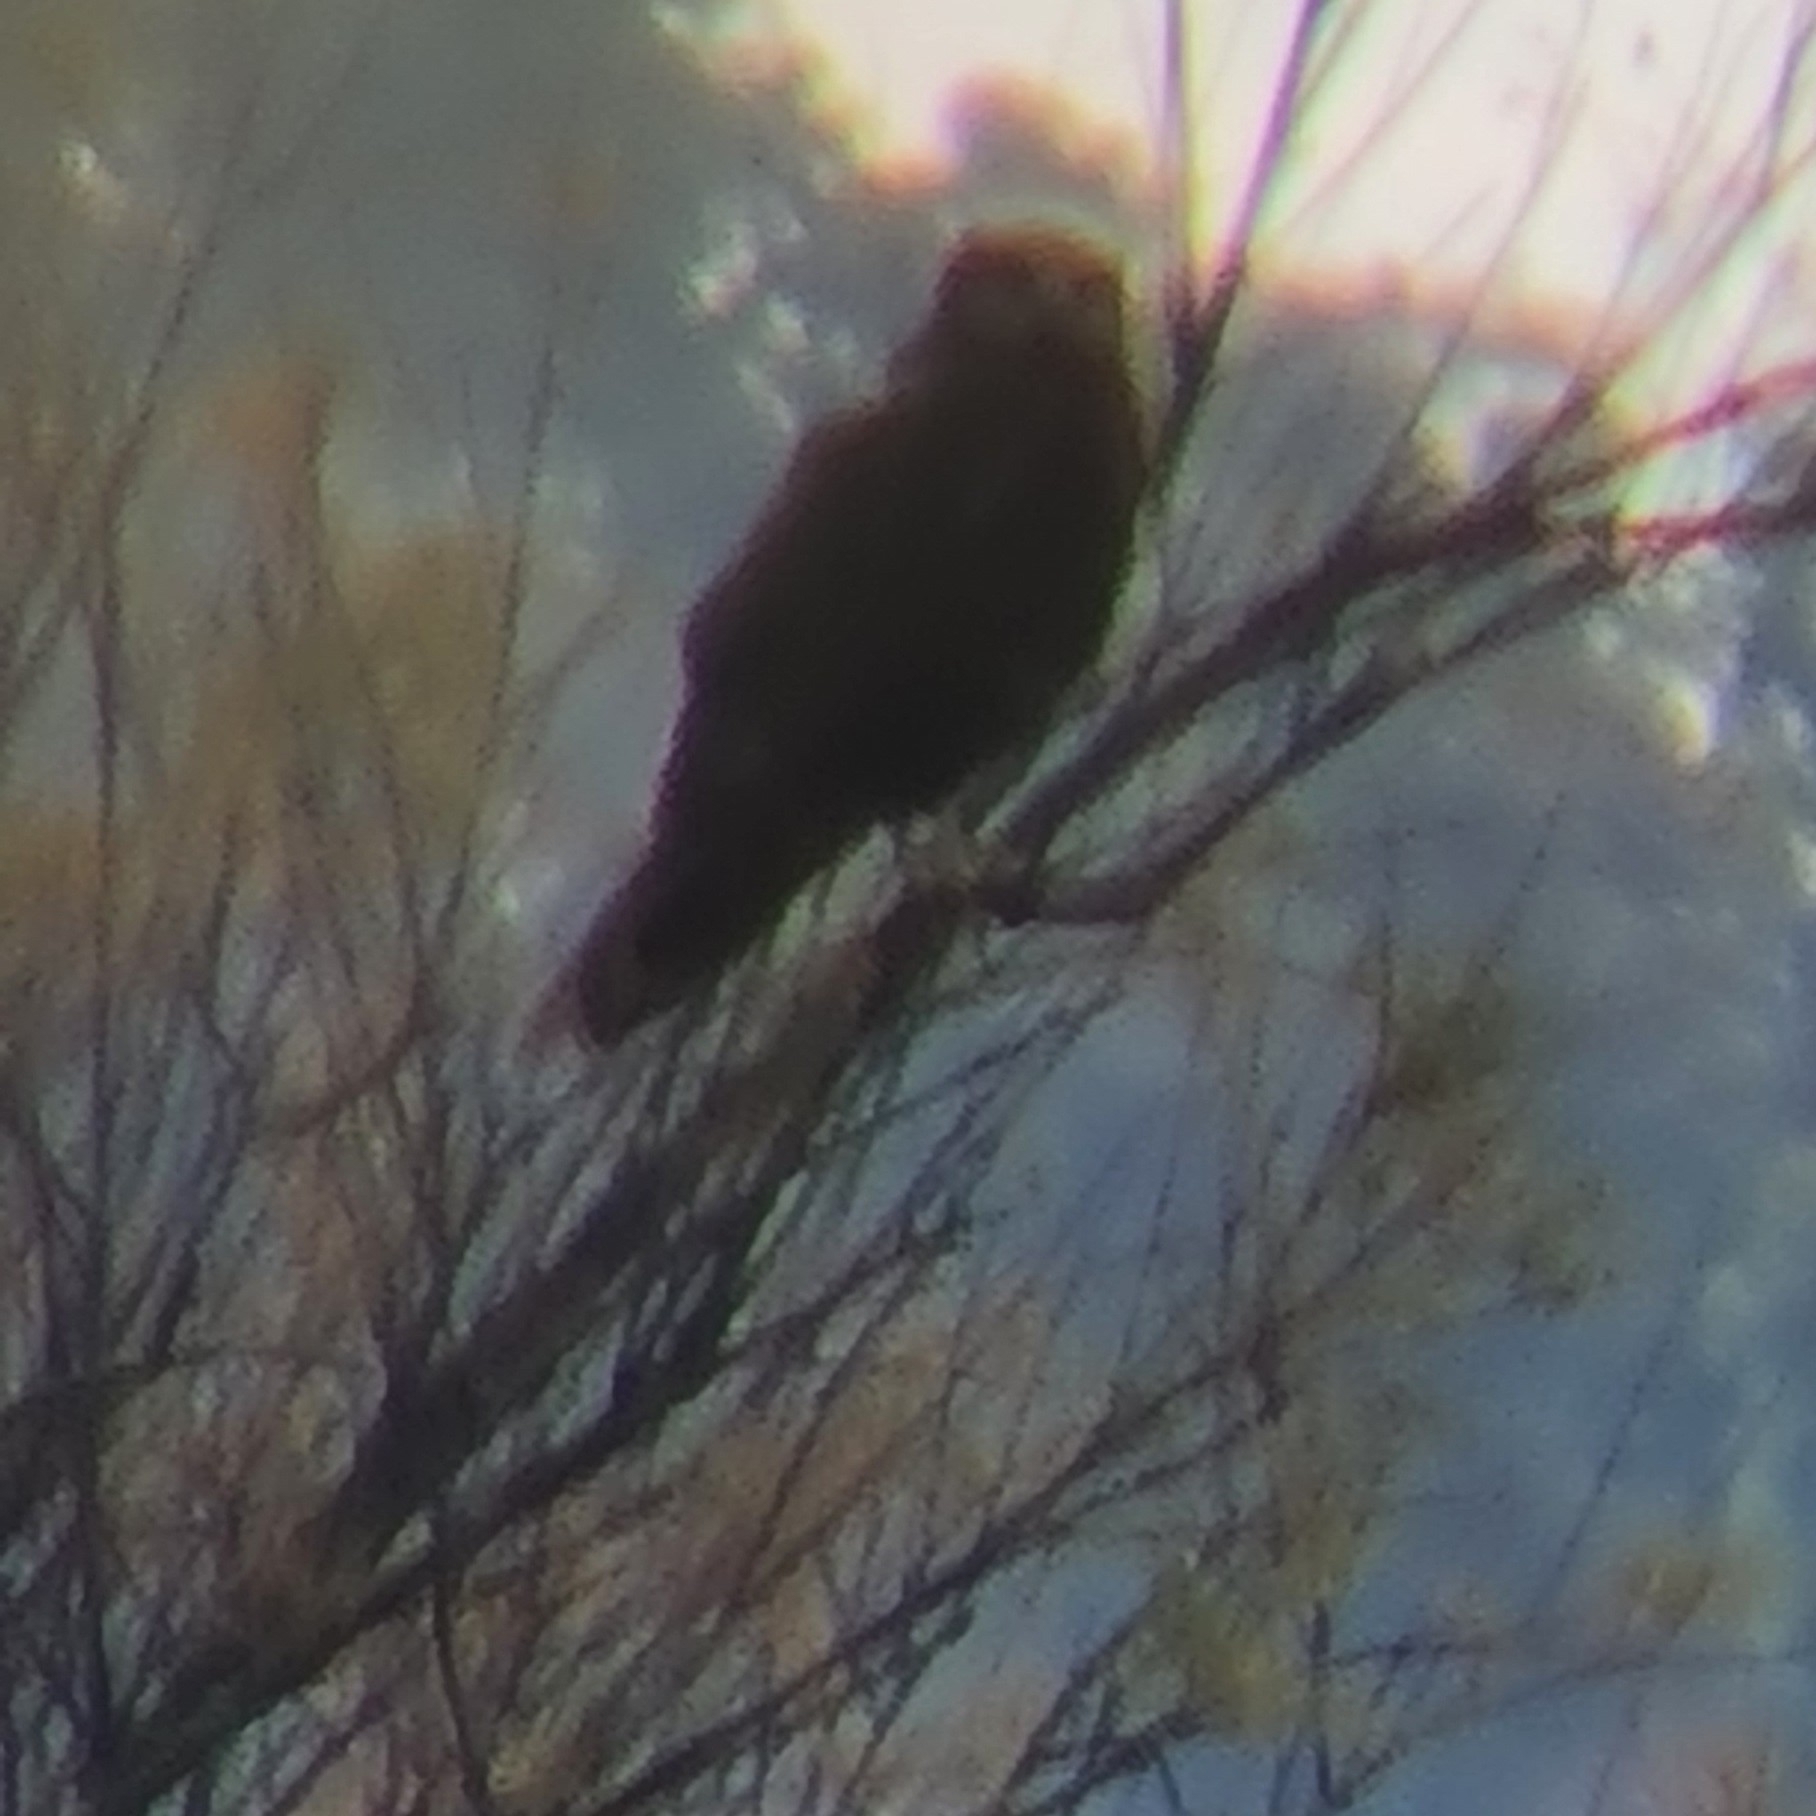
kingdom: Animalia
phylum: Chordata
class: Aves
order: Accipitriformes
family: Accipitridae
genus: Circus
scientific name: Circus aeruginosus
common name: Western marsh harrier
